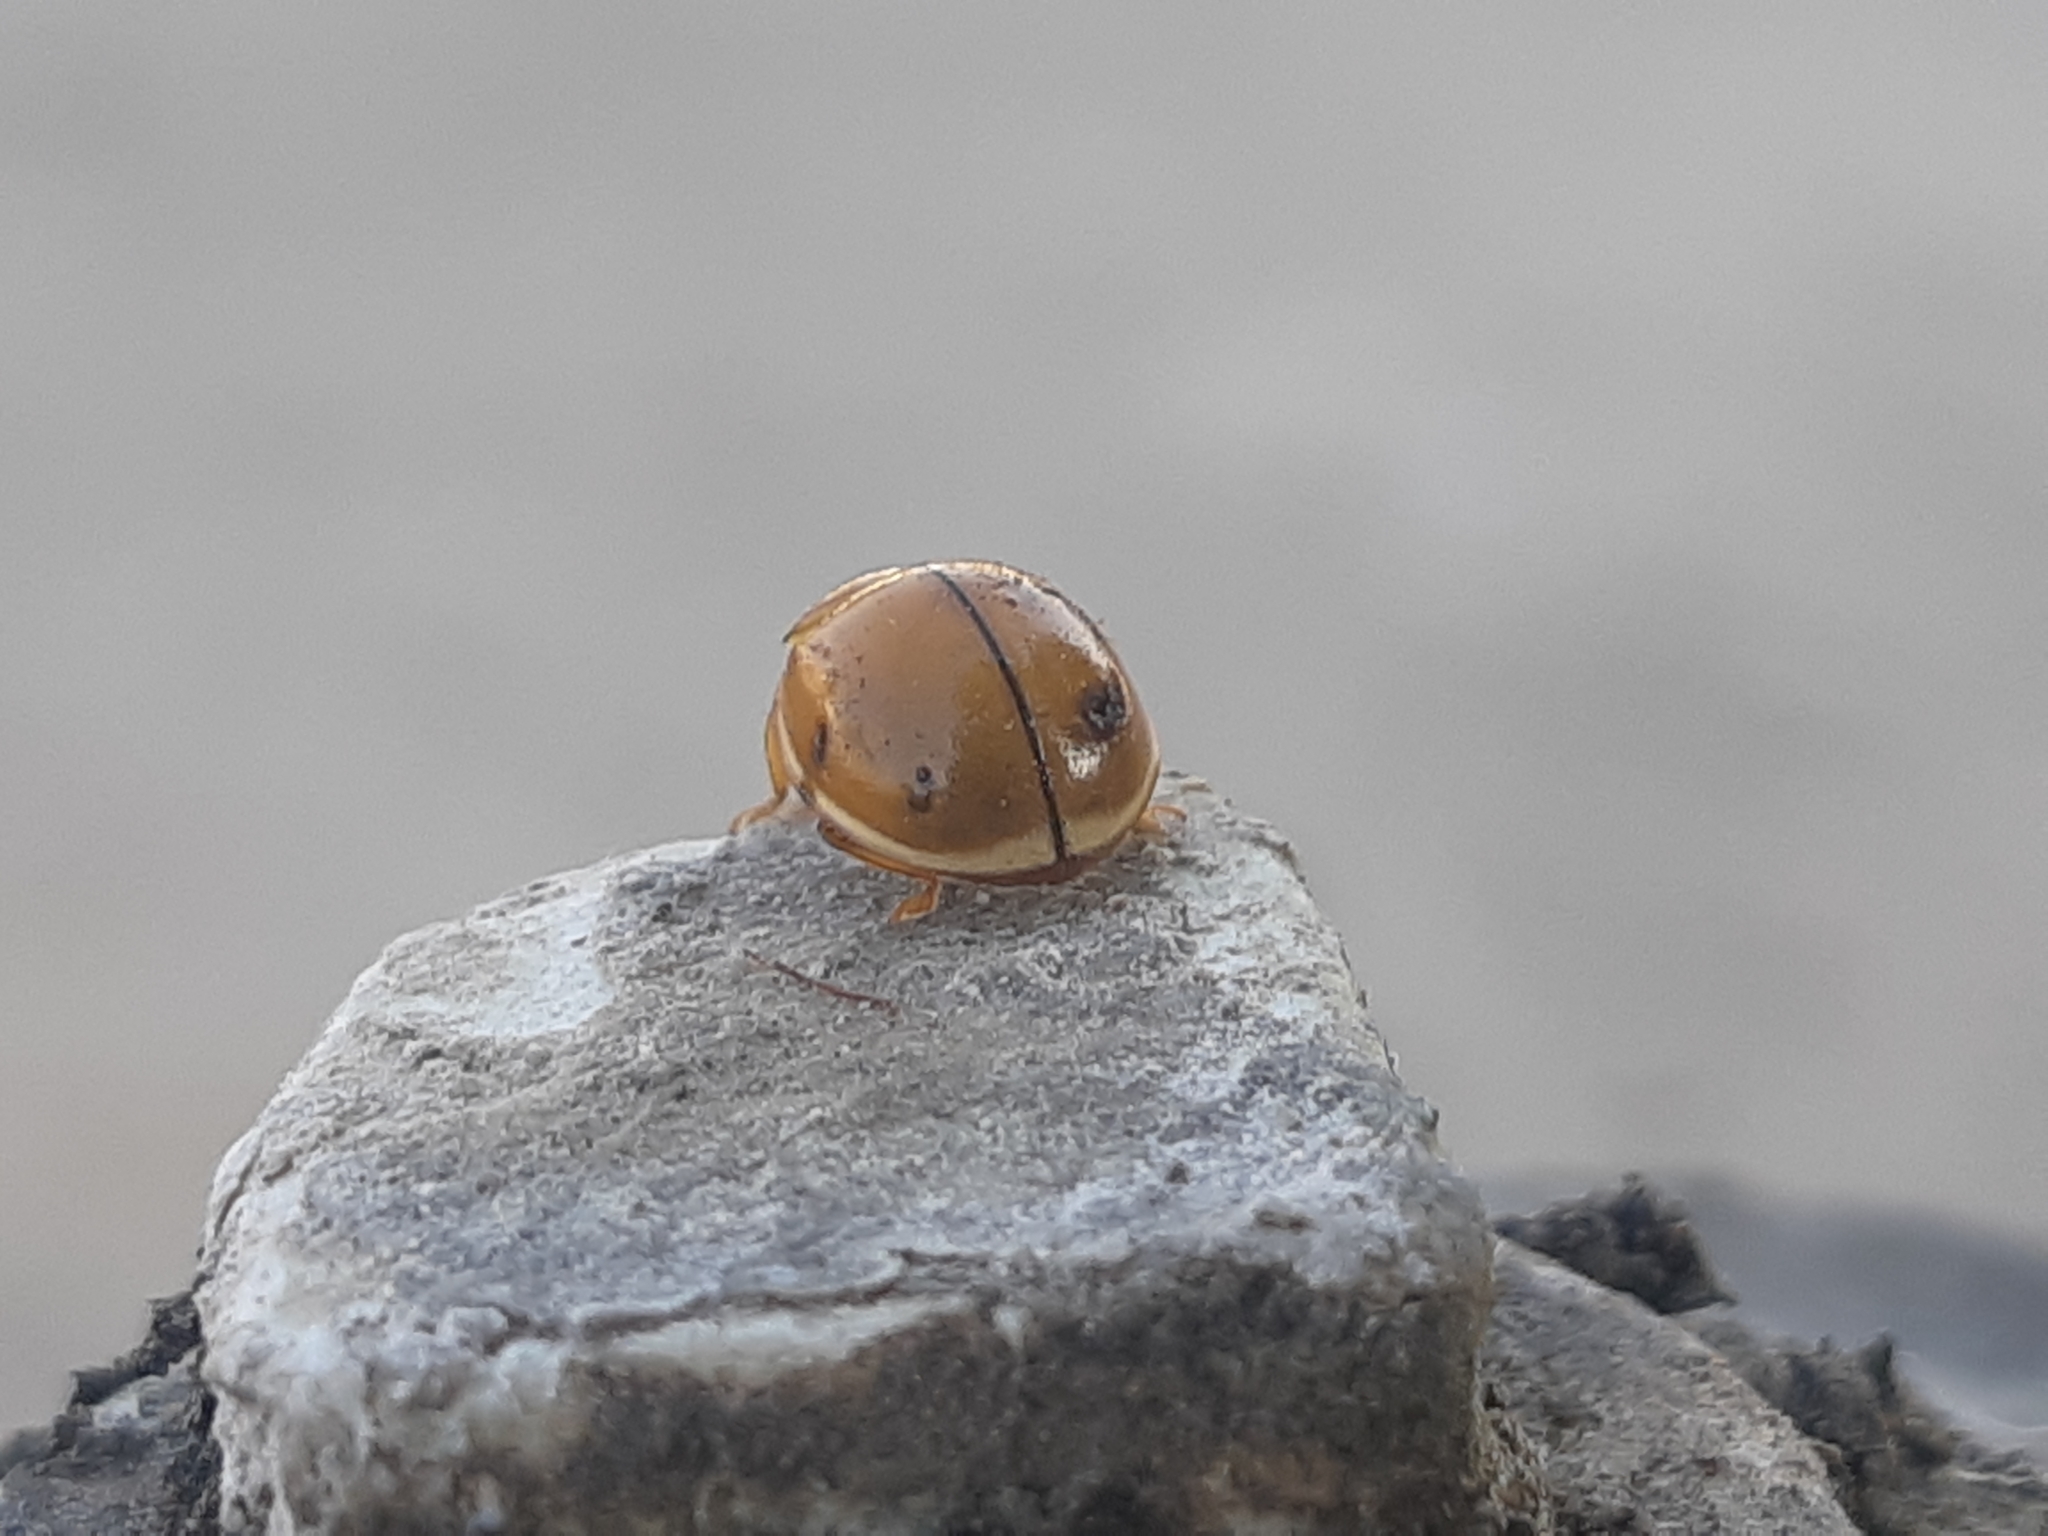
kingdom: Animalia
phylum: Arthropoda
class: Insecta
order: Coleoptera
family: Coccinellidae
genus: Paraneda
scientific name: Paraneda pallidula
